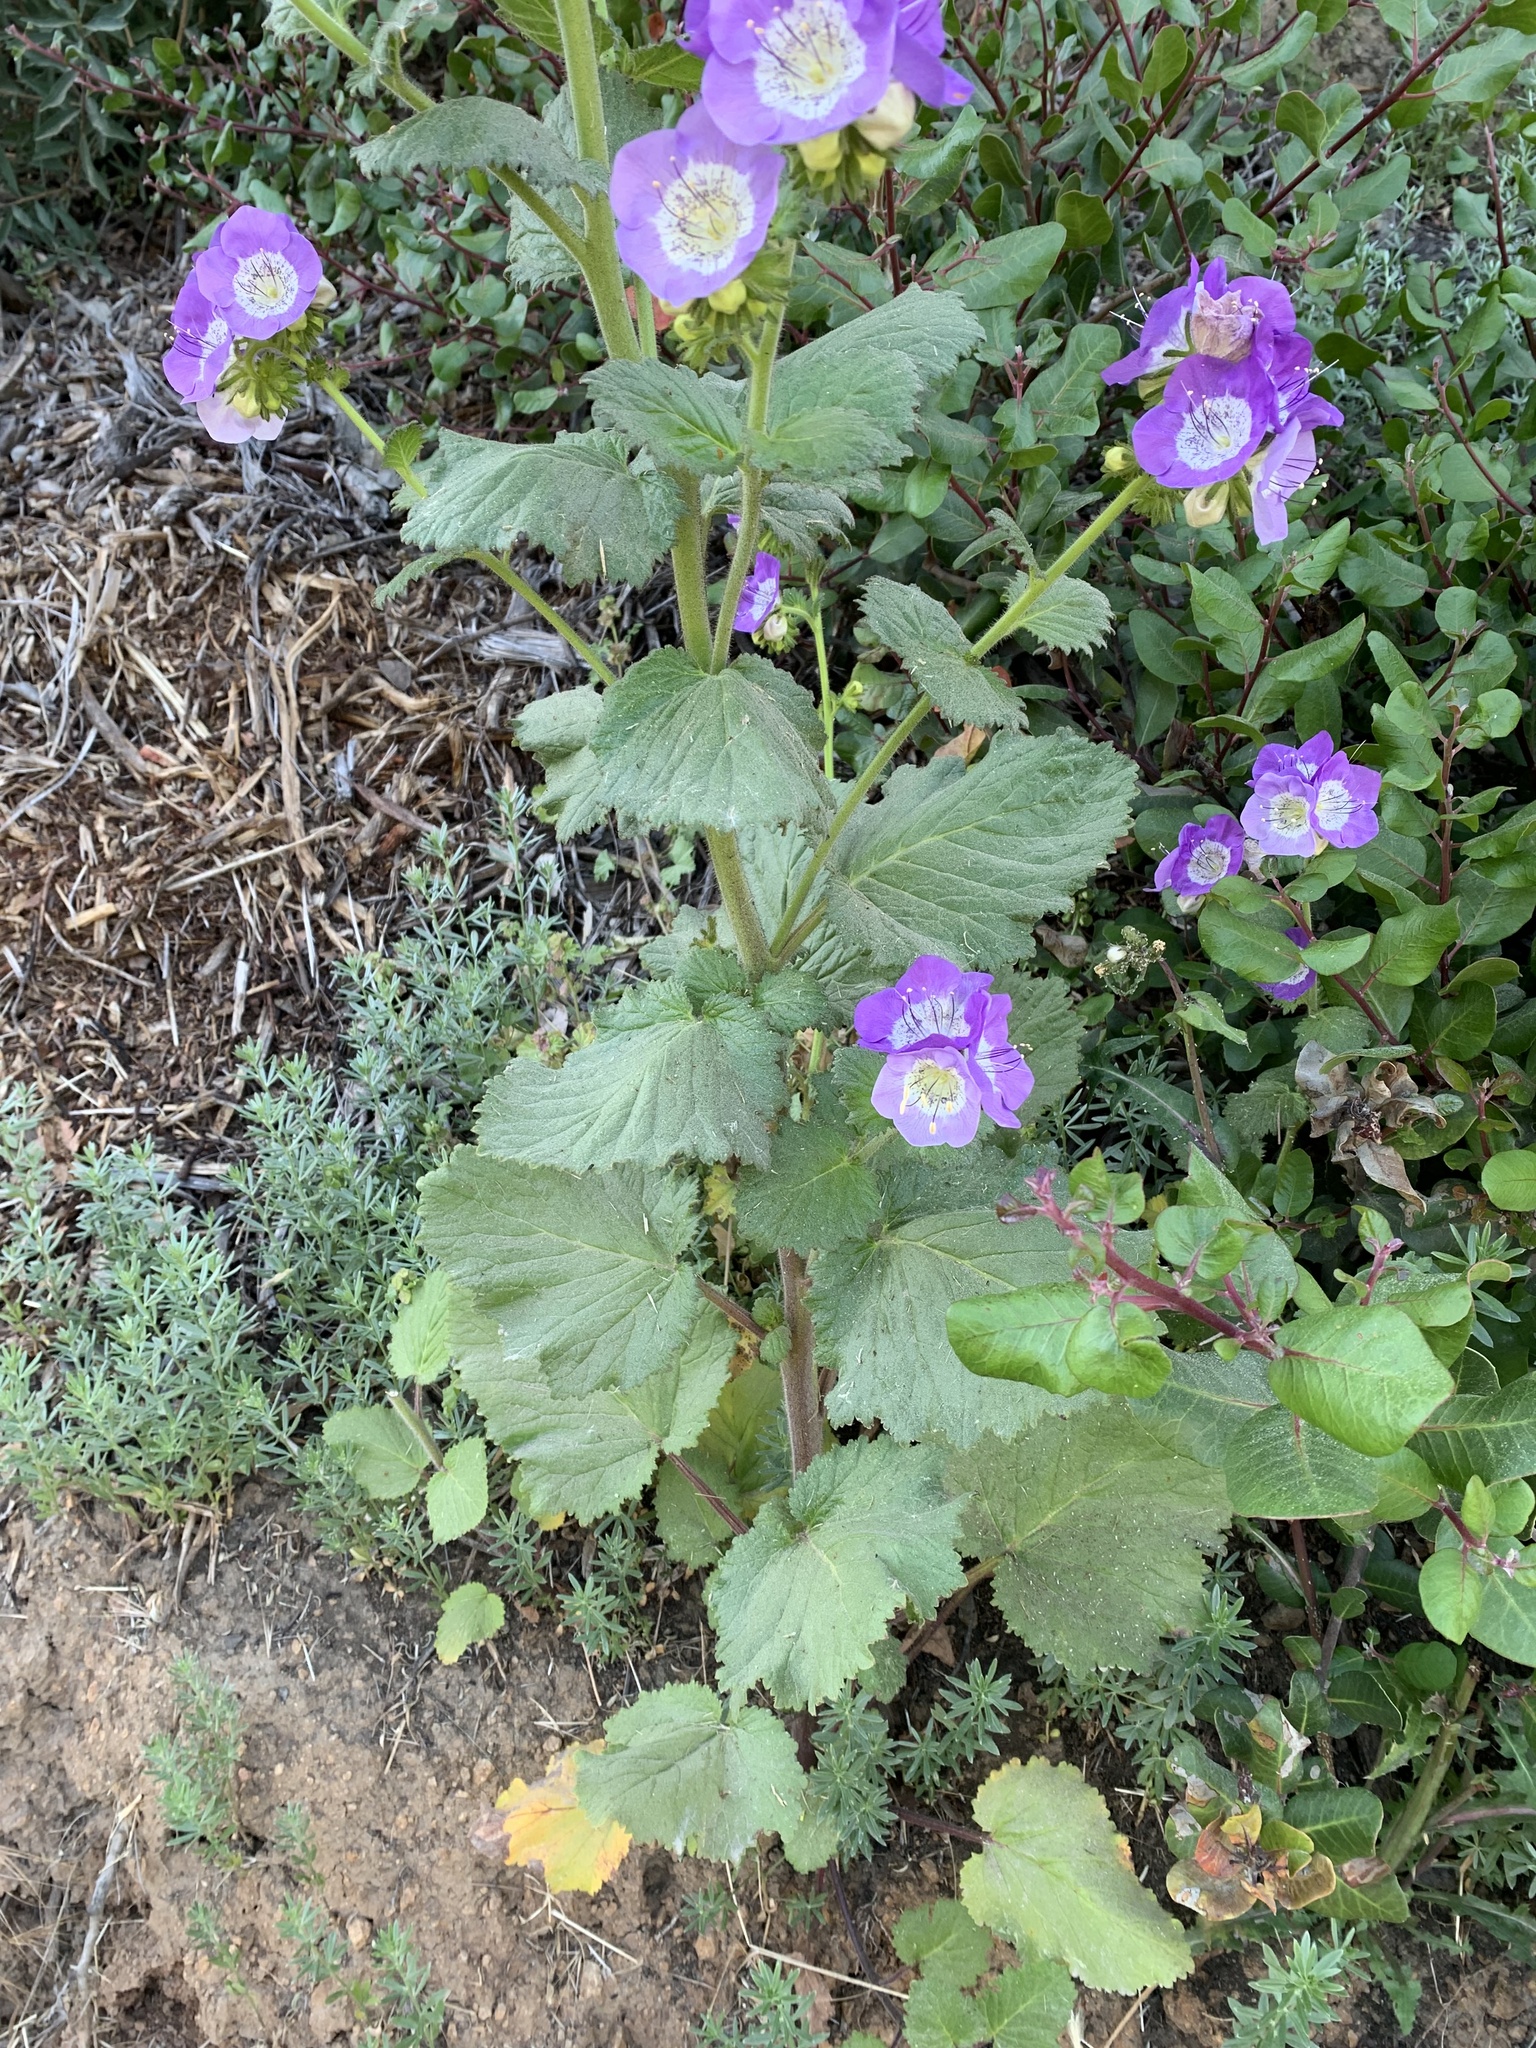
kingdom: Plantae
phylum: Tracheophyta
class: Magnoliopsida
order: Boraginales
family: Hydrophyllaceae
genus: Phacelia
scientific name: Phacelia grandiflora
